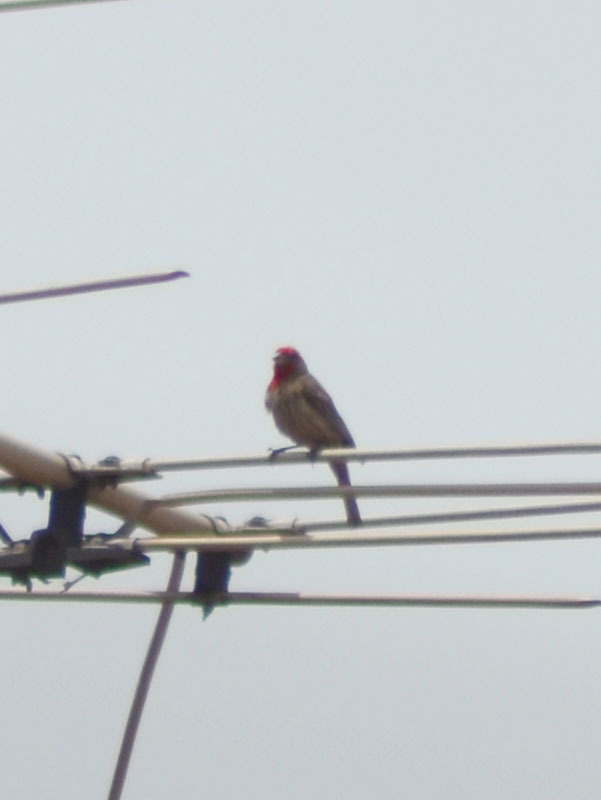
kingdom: Animalia
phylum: Chordata
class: Aves
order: Passeriformes
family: Fringillidae
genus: Haemorhous
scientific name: Haemorhous mexicanus
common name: House finch
